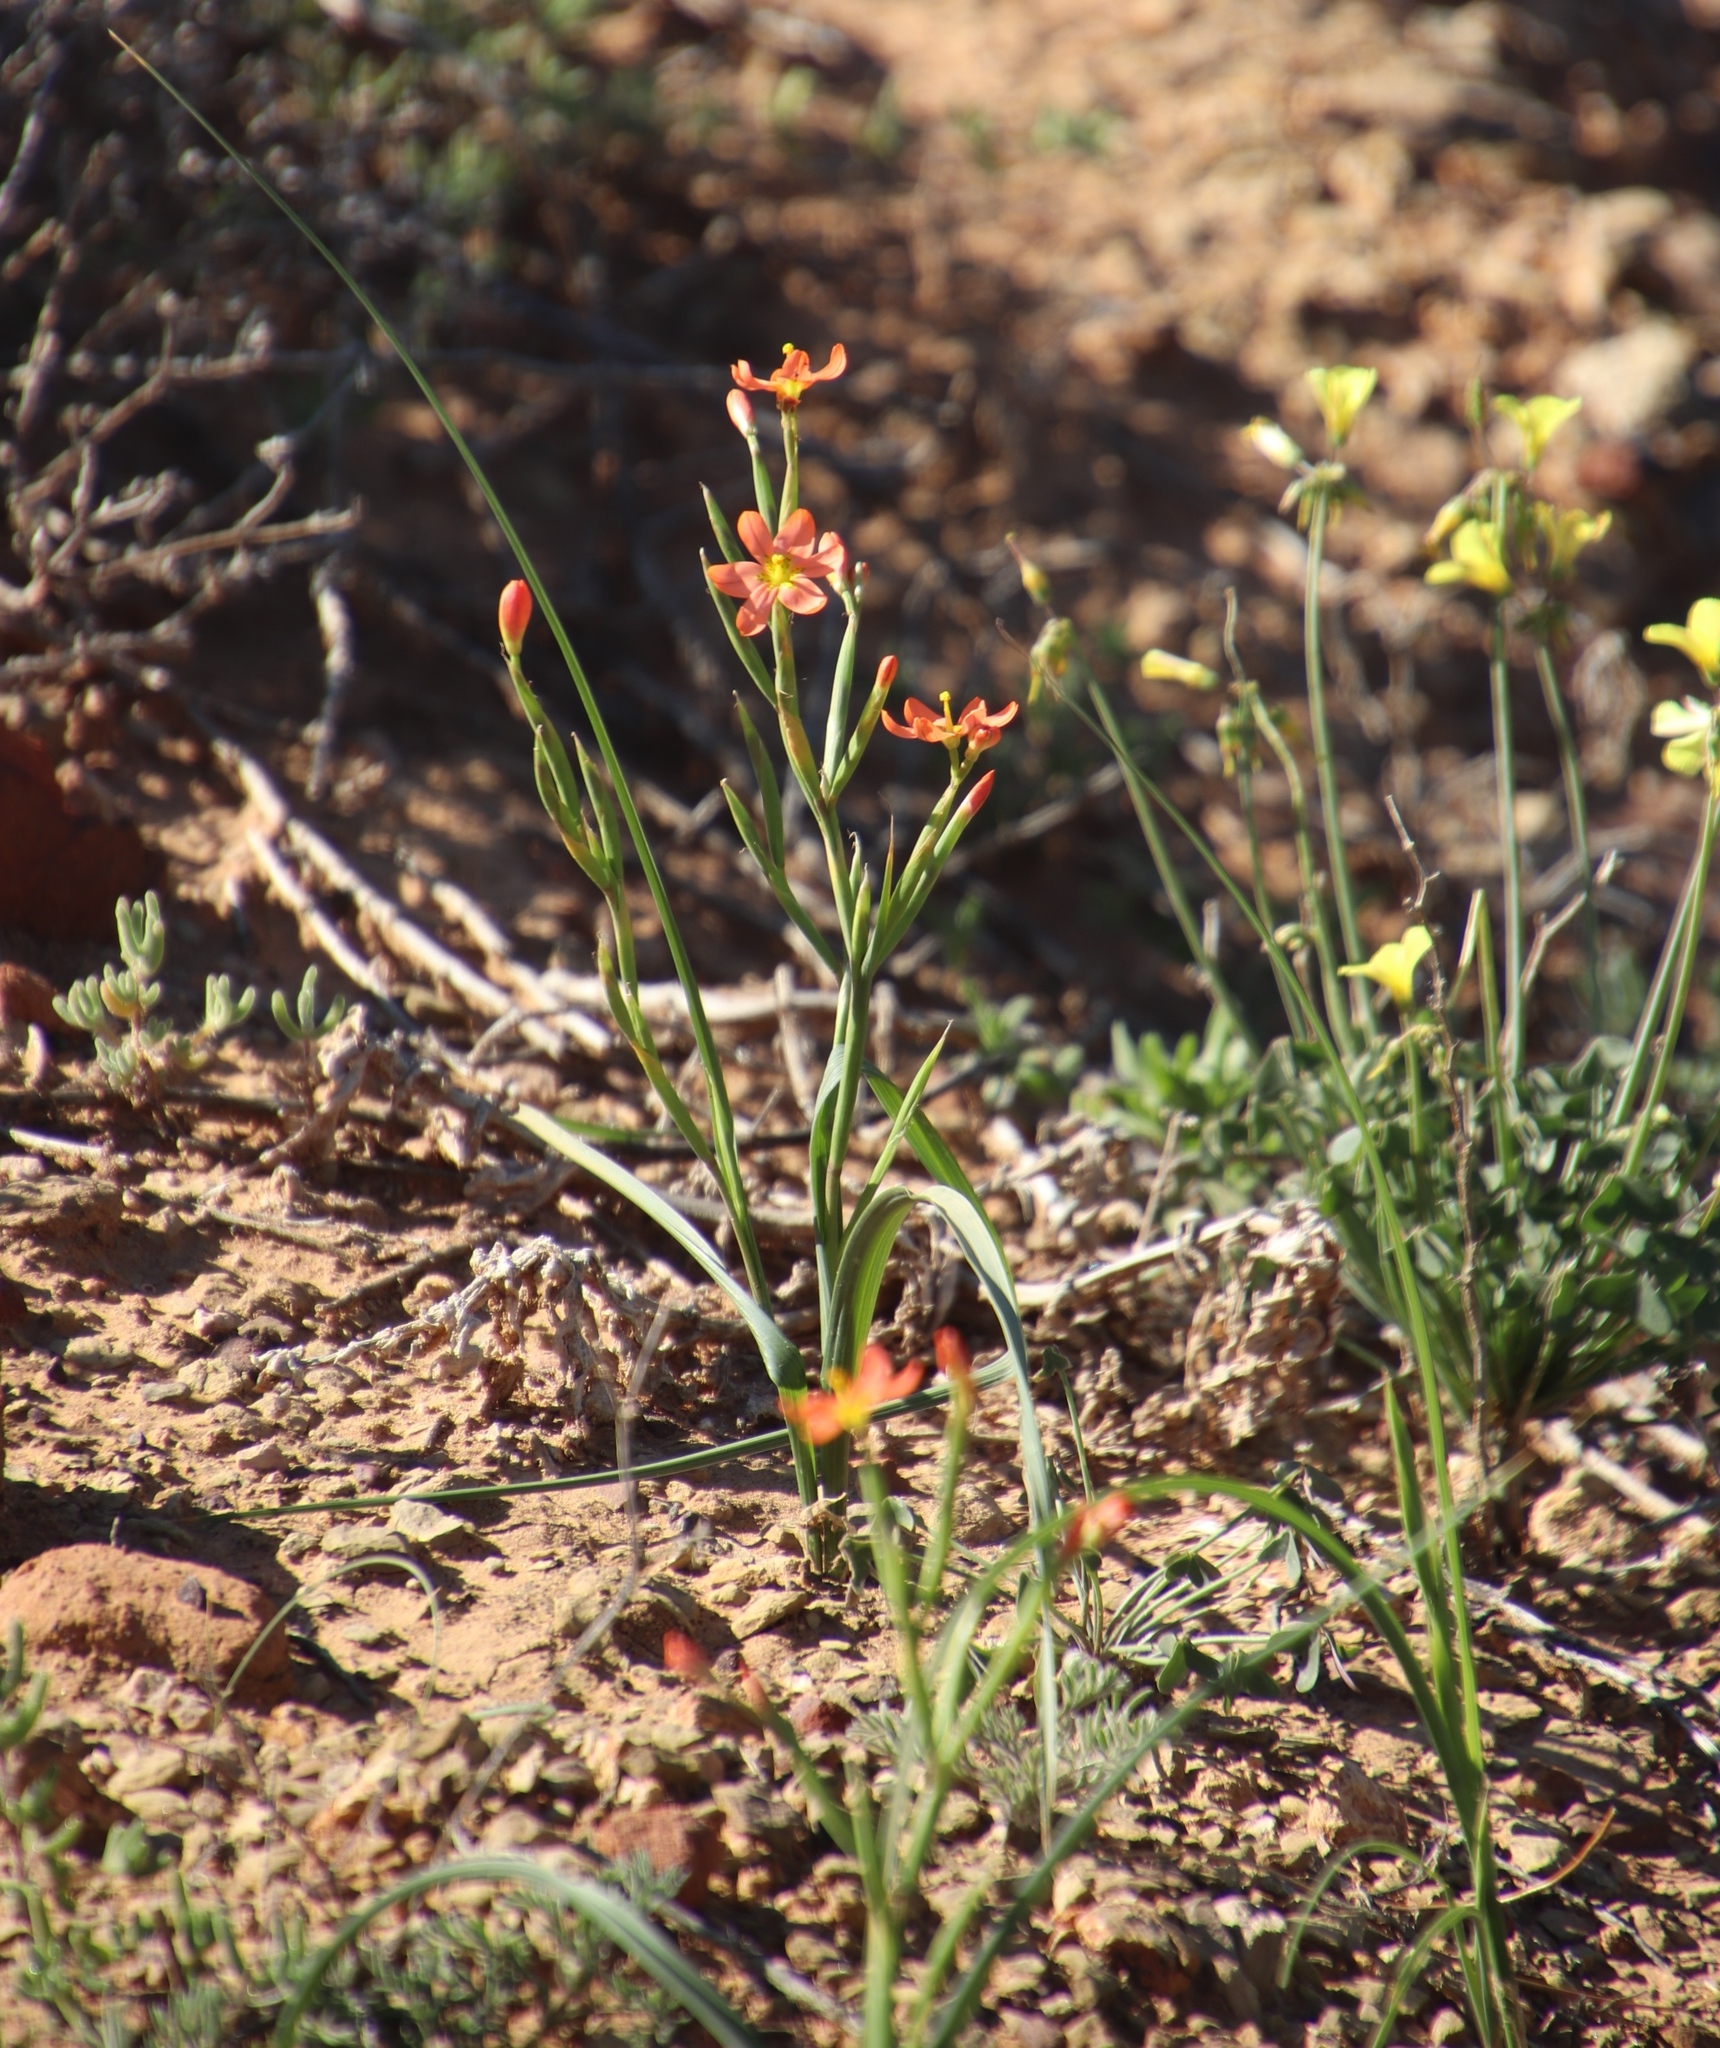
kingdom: Plantae
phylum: Tracheophyta
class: Liliopsida
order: Asparagales
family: Iridaceae
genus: Moraea
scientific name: Moraea miniata
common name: Two-leaf cape-tulip
